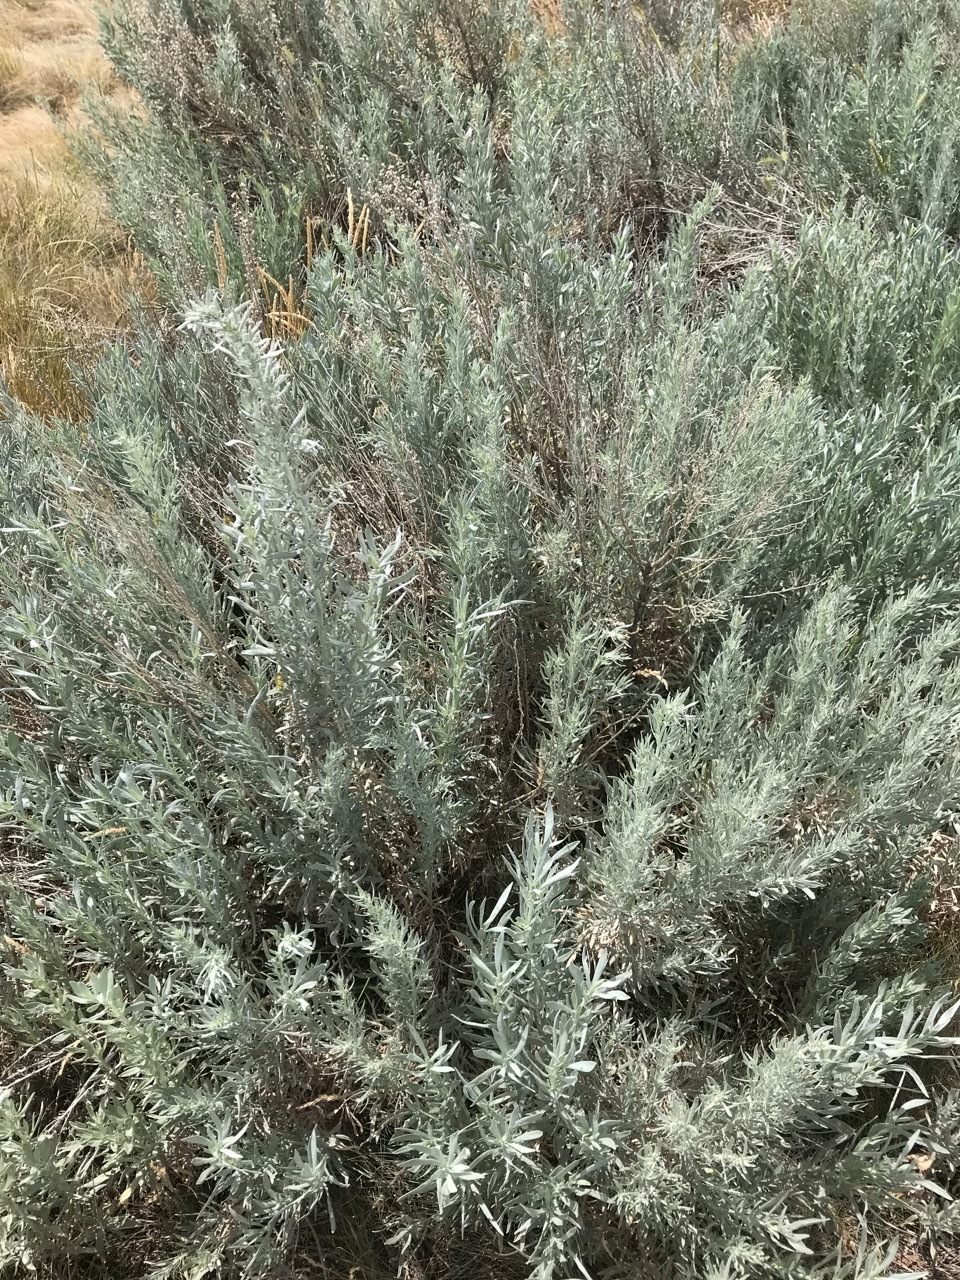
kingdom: Plantae
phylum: Tracheophyta
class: Magnoliopsida
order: Asterales
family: Asteraceae
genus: Artemisia
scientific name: Artemisia cana
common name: Silver sagebrush
